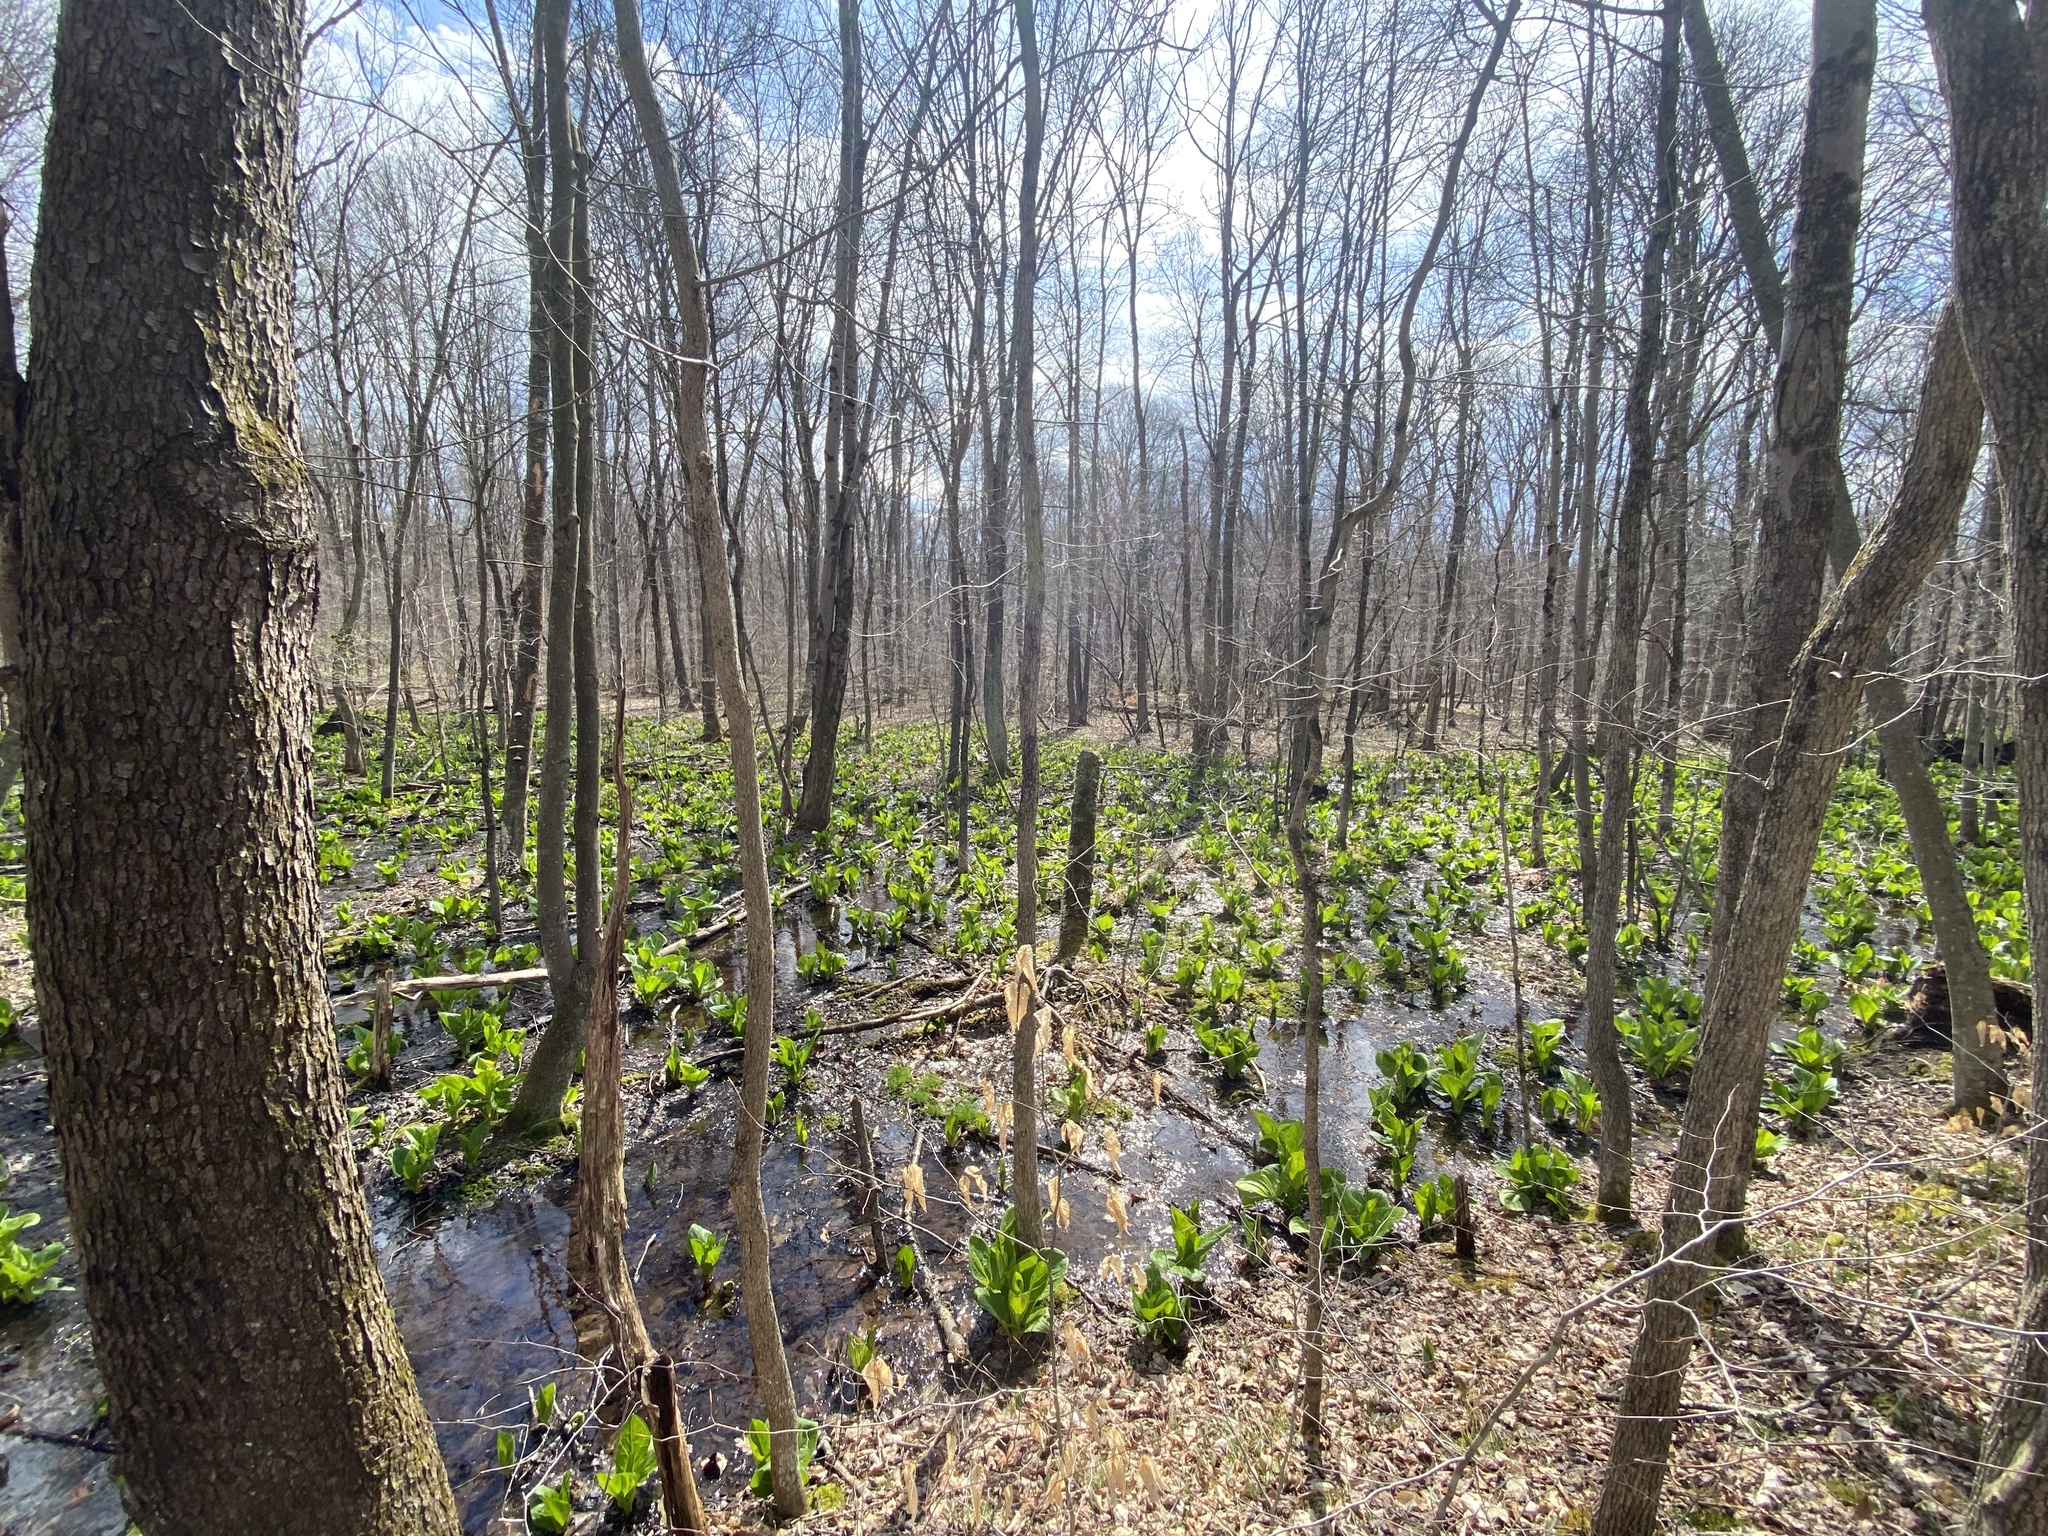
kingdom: Plantae
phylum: Tracheophyta
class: Liliopsida
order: Alismatales
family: Araceae
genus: Symplocarpus
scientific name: Symplocarpus foetidus
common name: Eastern skunk cabbage
